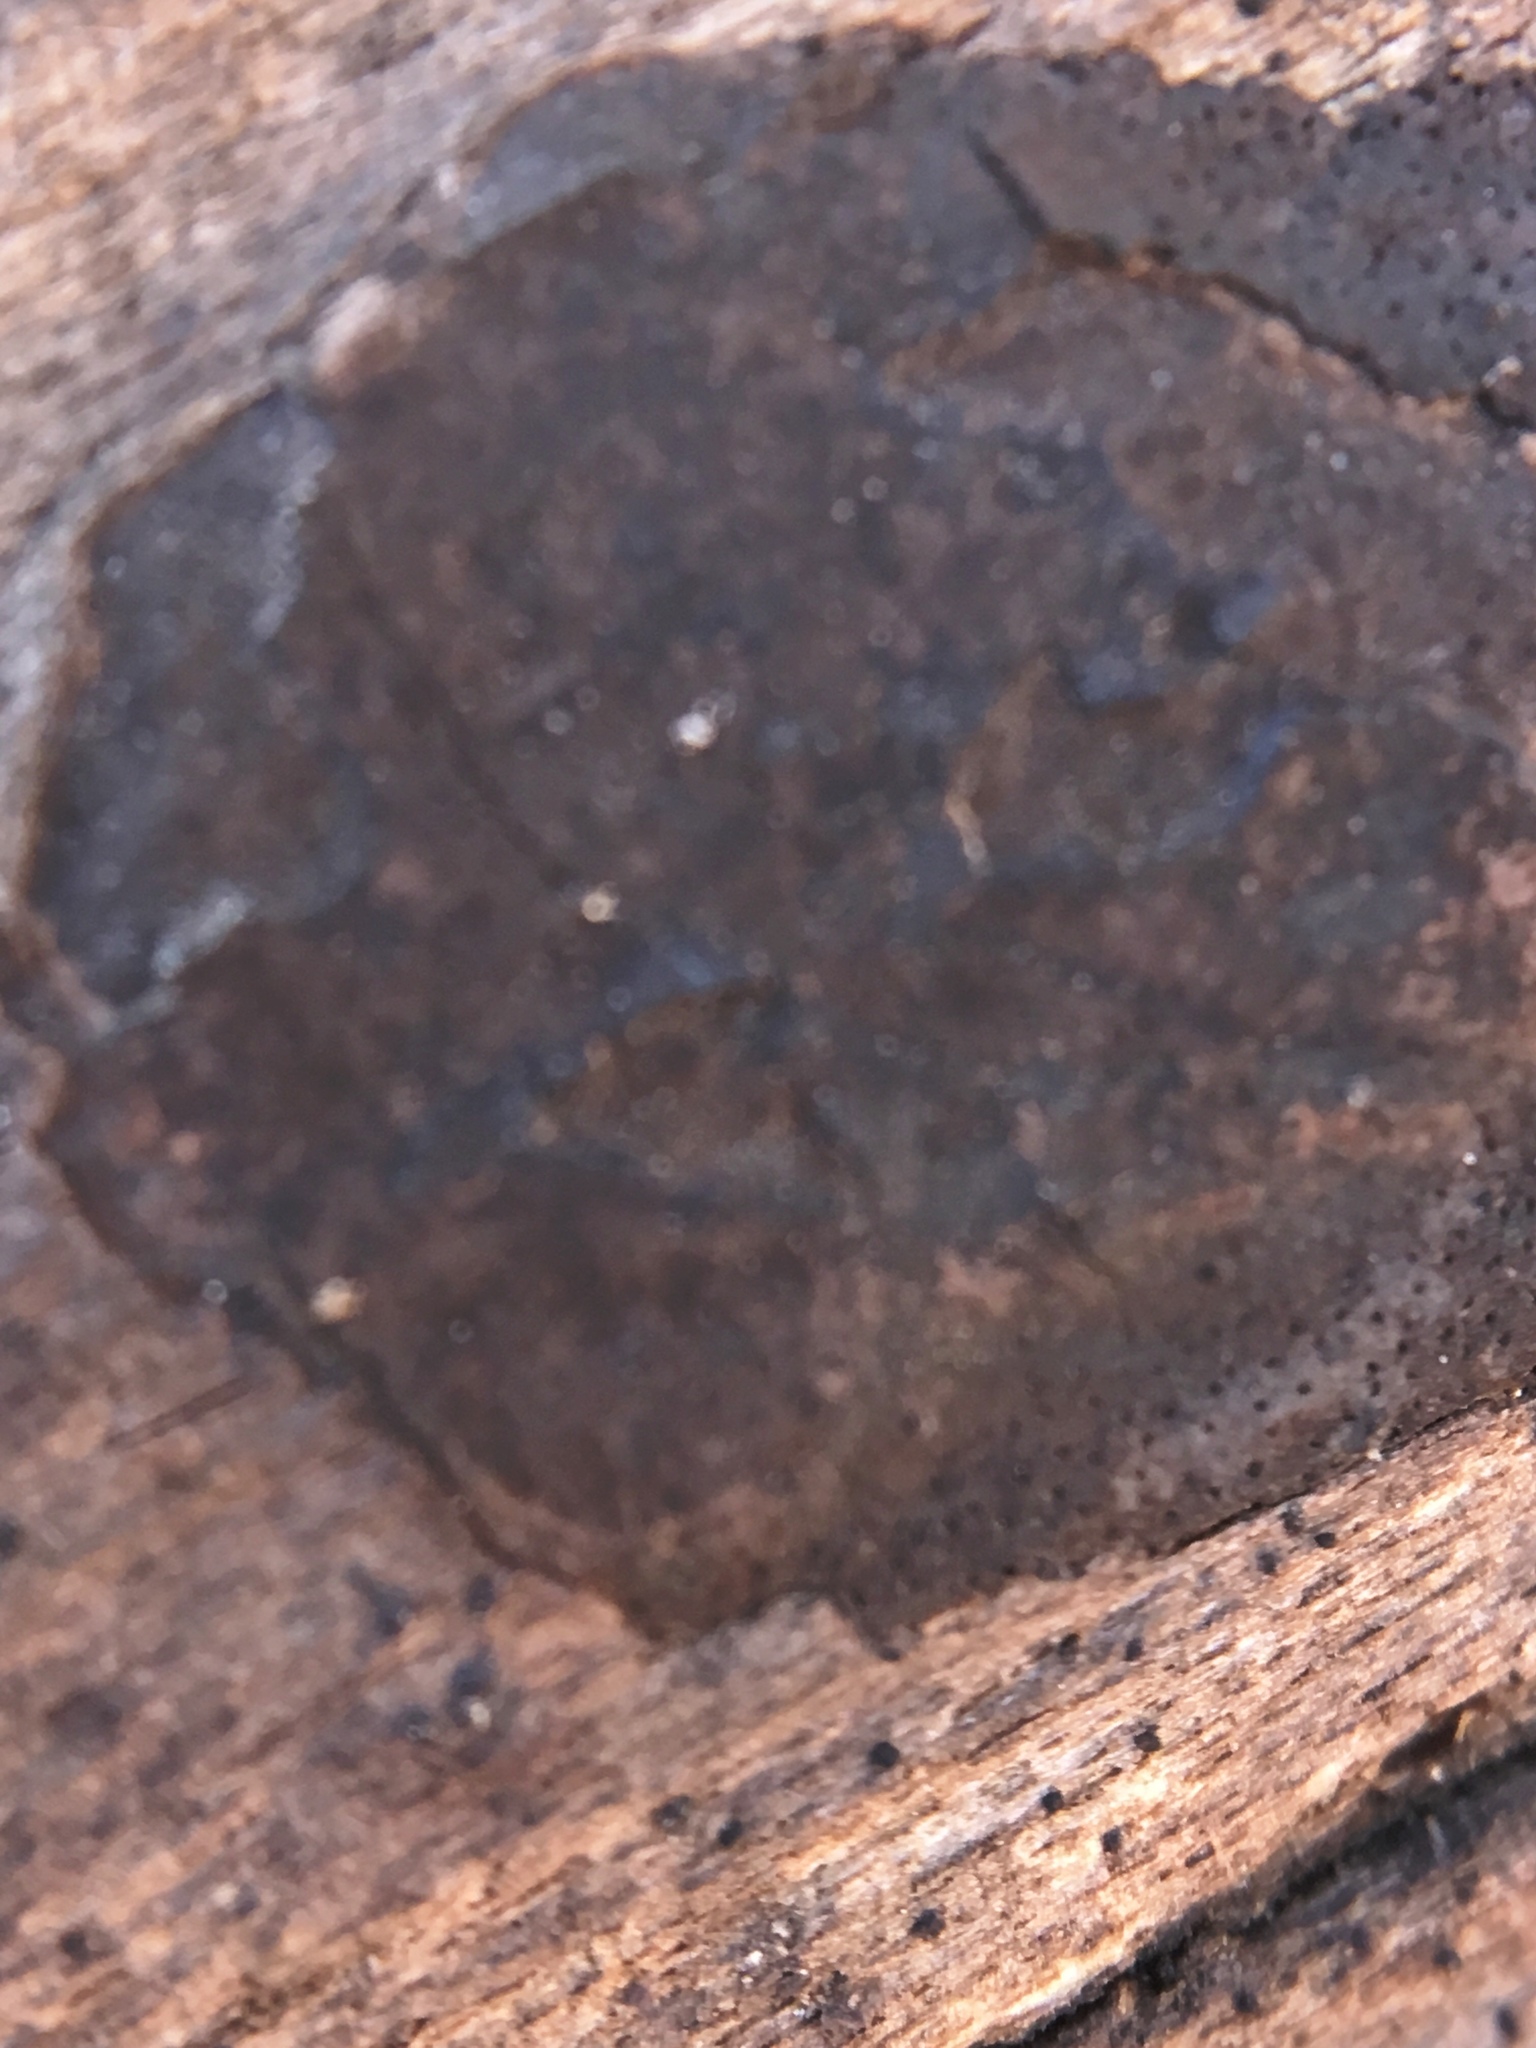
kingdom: Fungi
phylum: Ascomycota
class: Sordariomycetes
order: Xylariales
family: Xylariaceae
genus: Whalleya
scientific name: Whalleya microplaca
